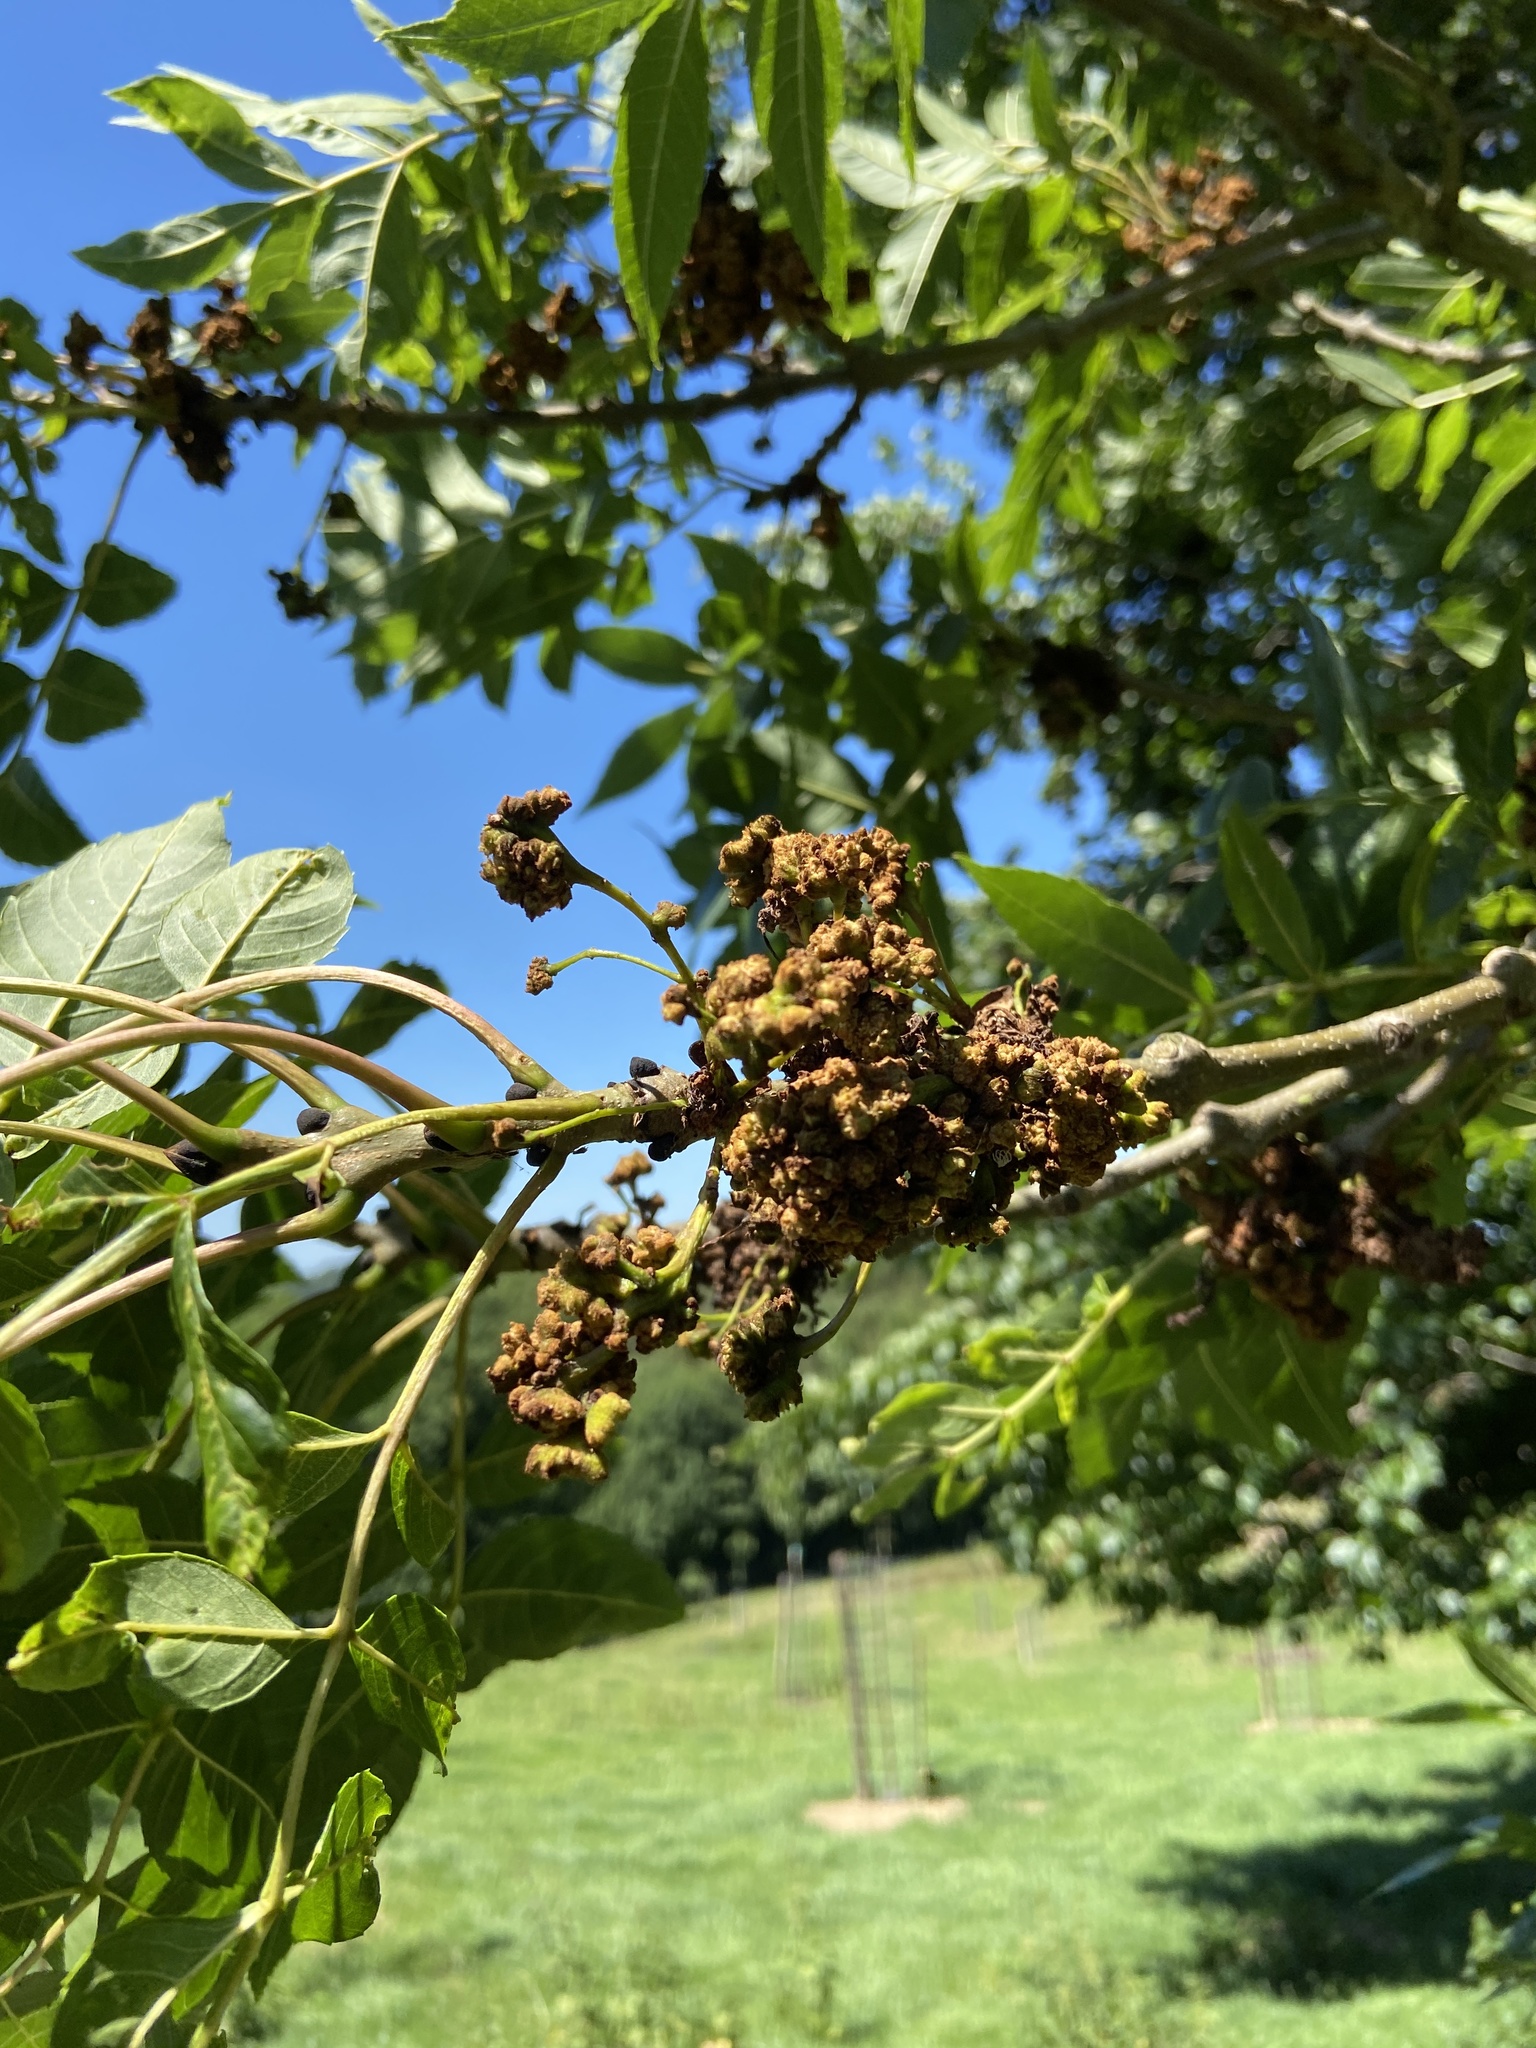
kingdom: Animalia
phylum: Arthropoda
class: Arachnida
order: Trombidiformes
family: Eriophyidae
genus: Aceria
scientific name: Aceria fraxinivora
